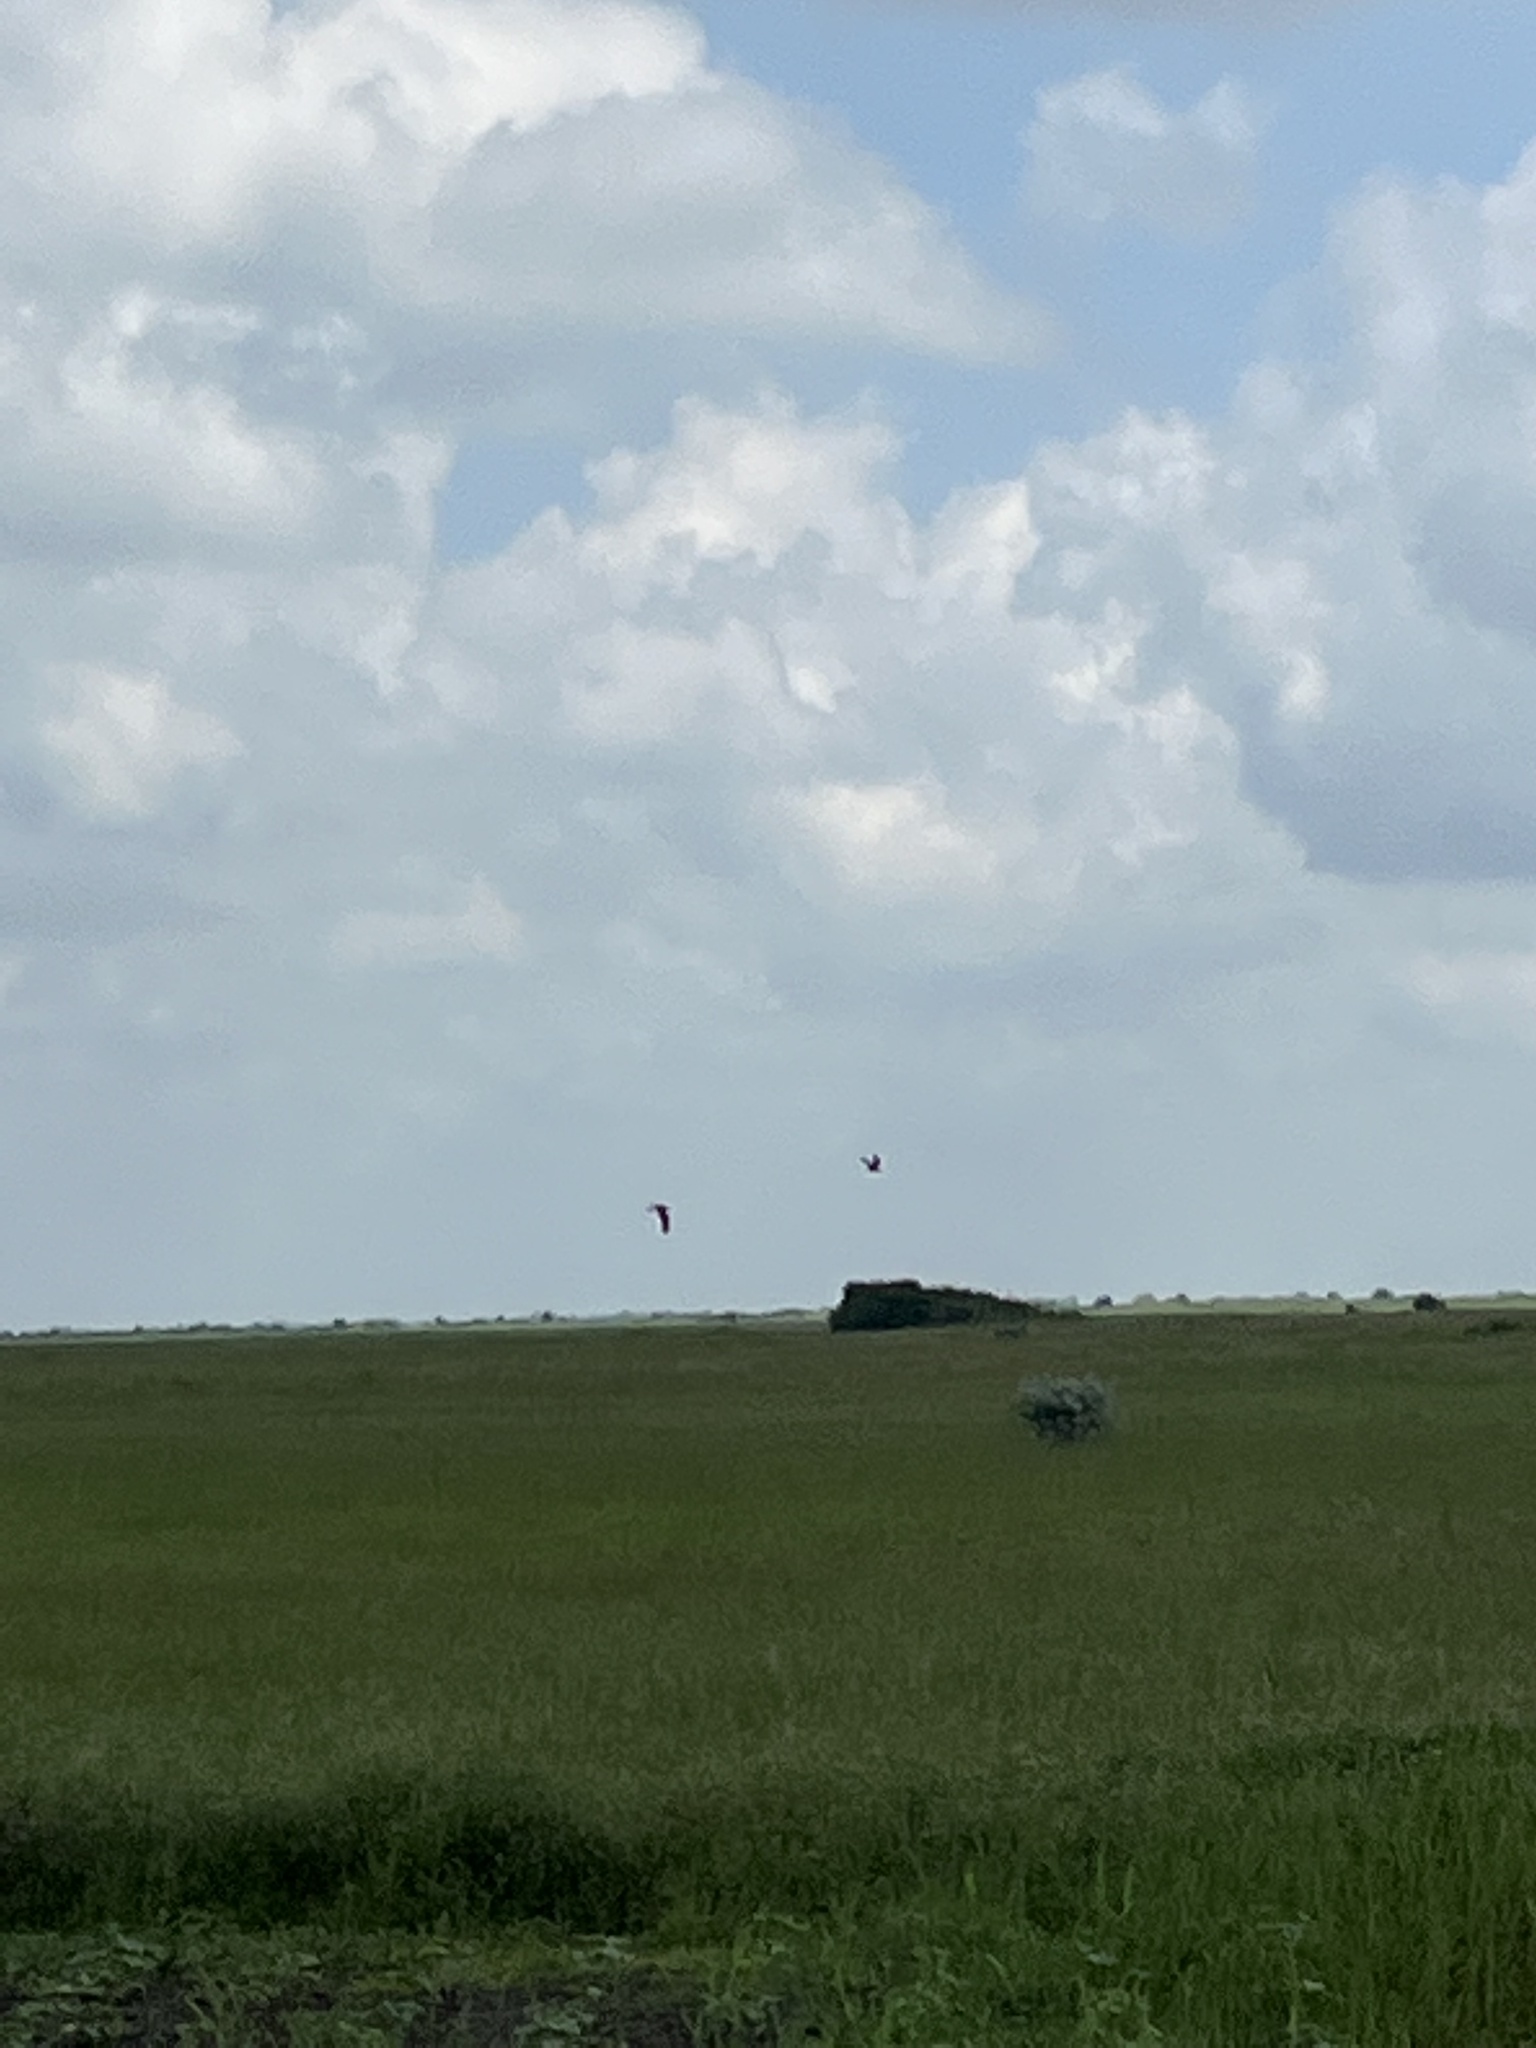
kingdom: Animalia
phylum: Chordata
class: Aves
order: Falconiformes
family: Falconidae
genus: Falco
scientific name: Falco tinnunculus
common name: Common kestrel
